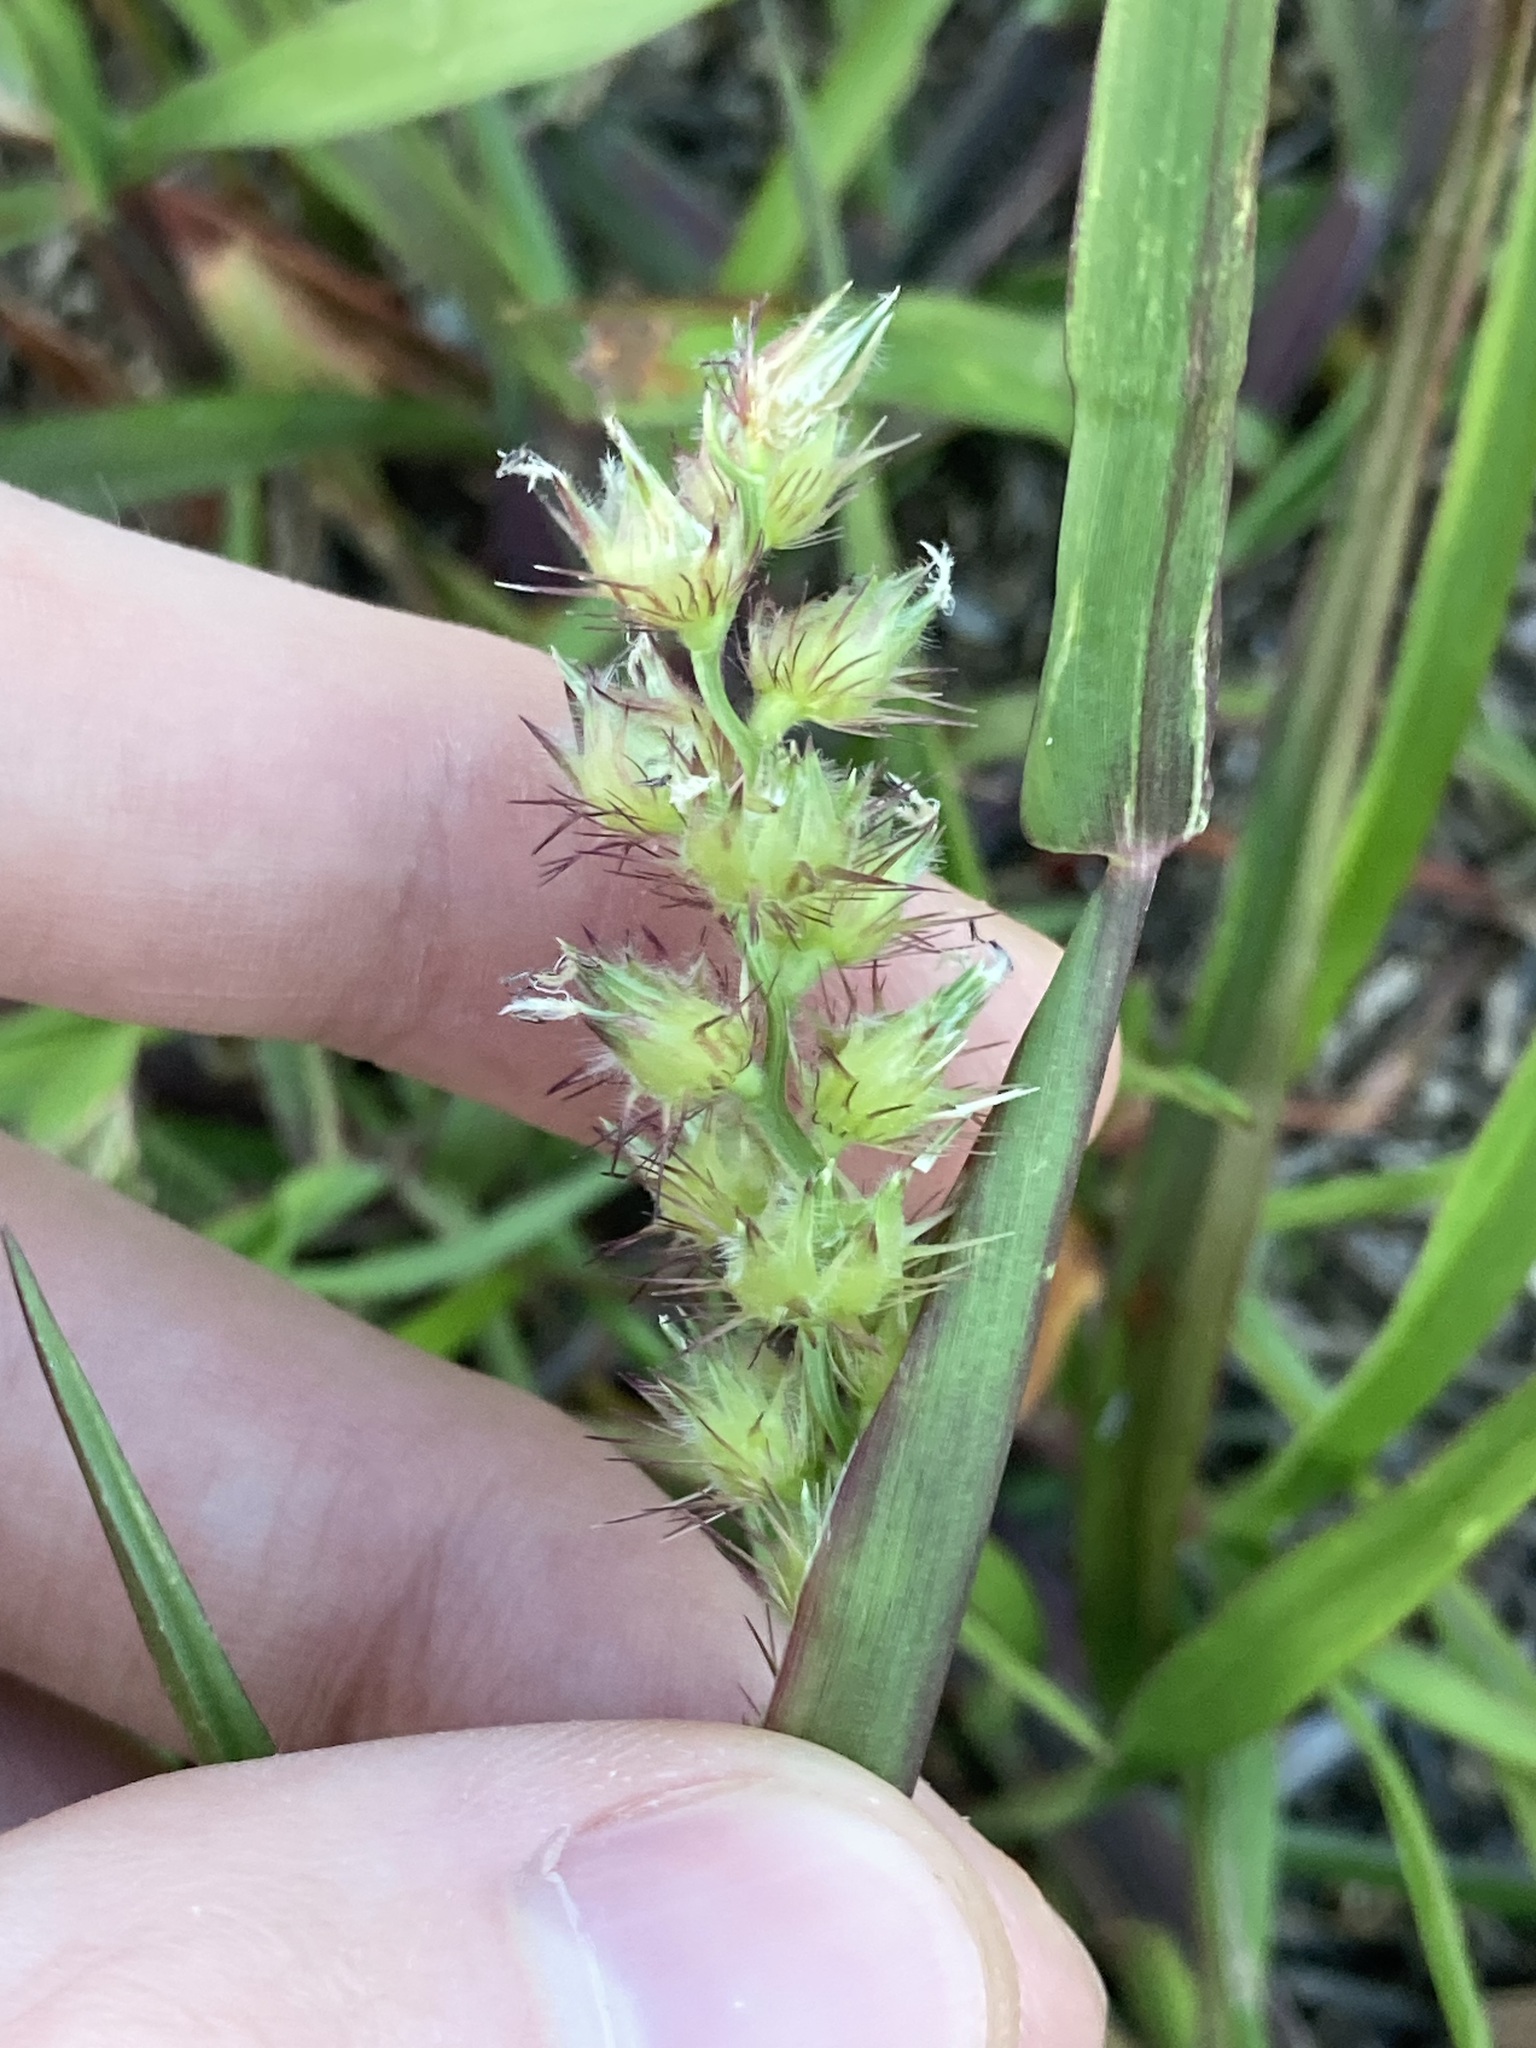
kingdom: Plantae
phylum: Tracheophyta
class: Liliopsida
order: Poales
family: Poaceae
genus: Cenchrus
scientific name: Cenchrus echinatus
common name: Southern sandbur
